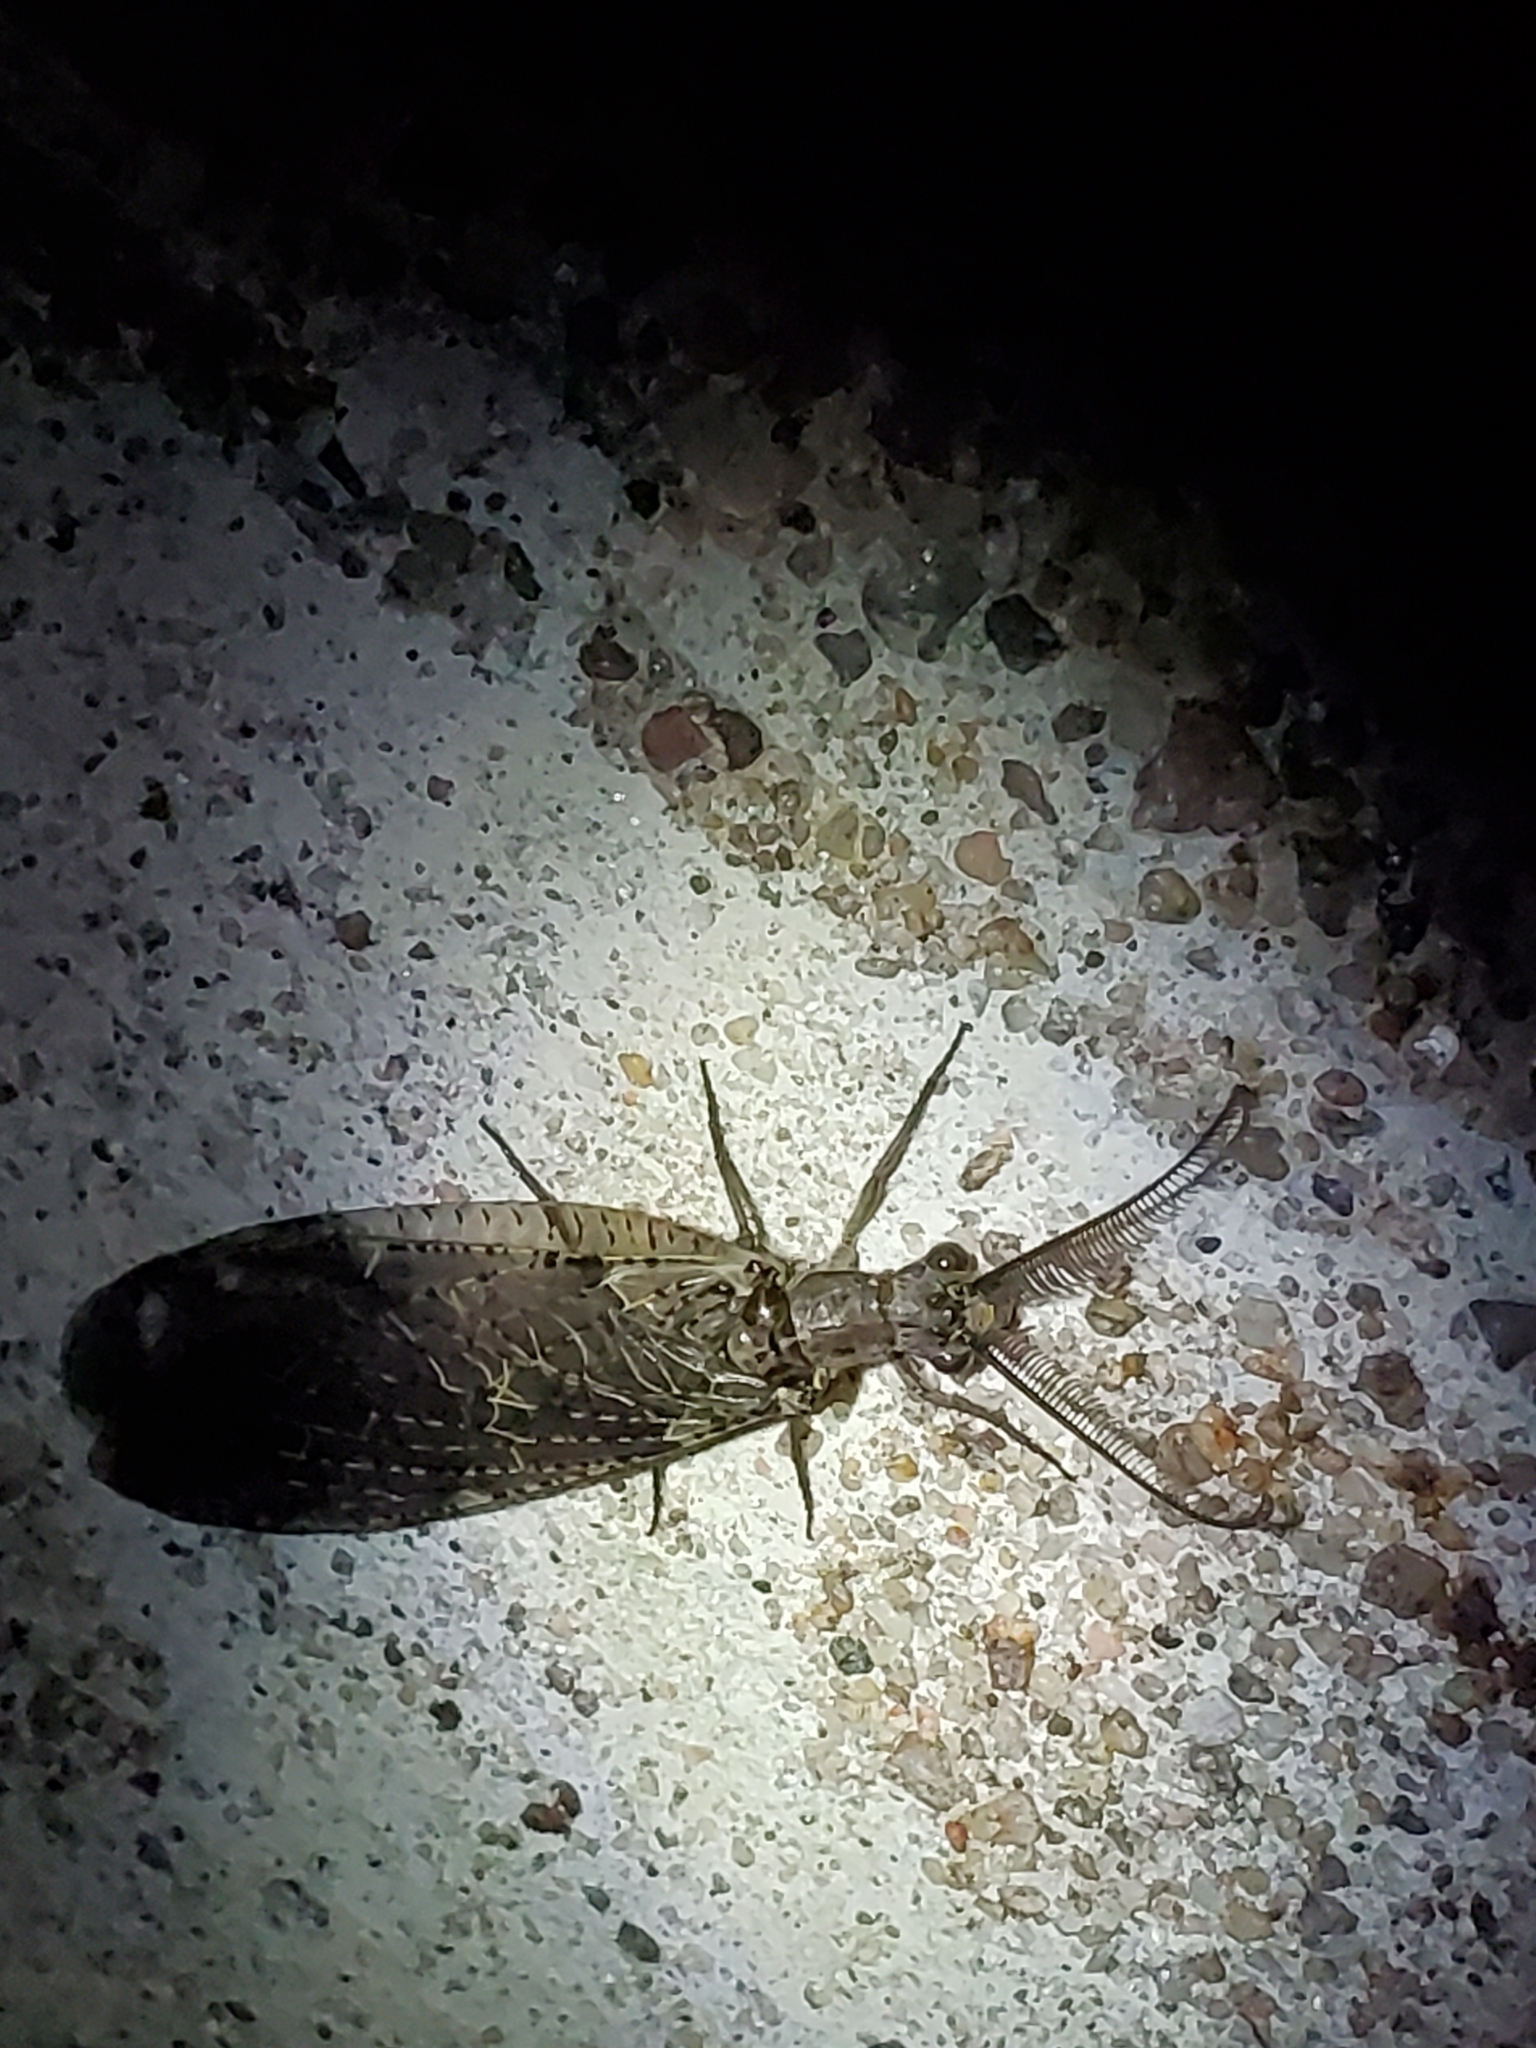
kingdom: Animalia
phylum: Arthropoda
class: Insecta
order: Megaloptera
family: Corydalidae
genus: Chauliodes
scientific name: Chauliodes rastricornis
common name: Spring fishfly
